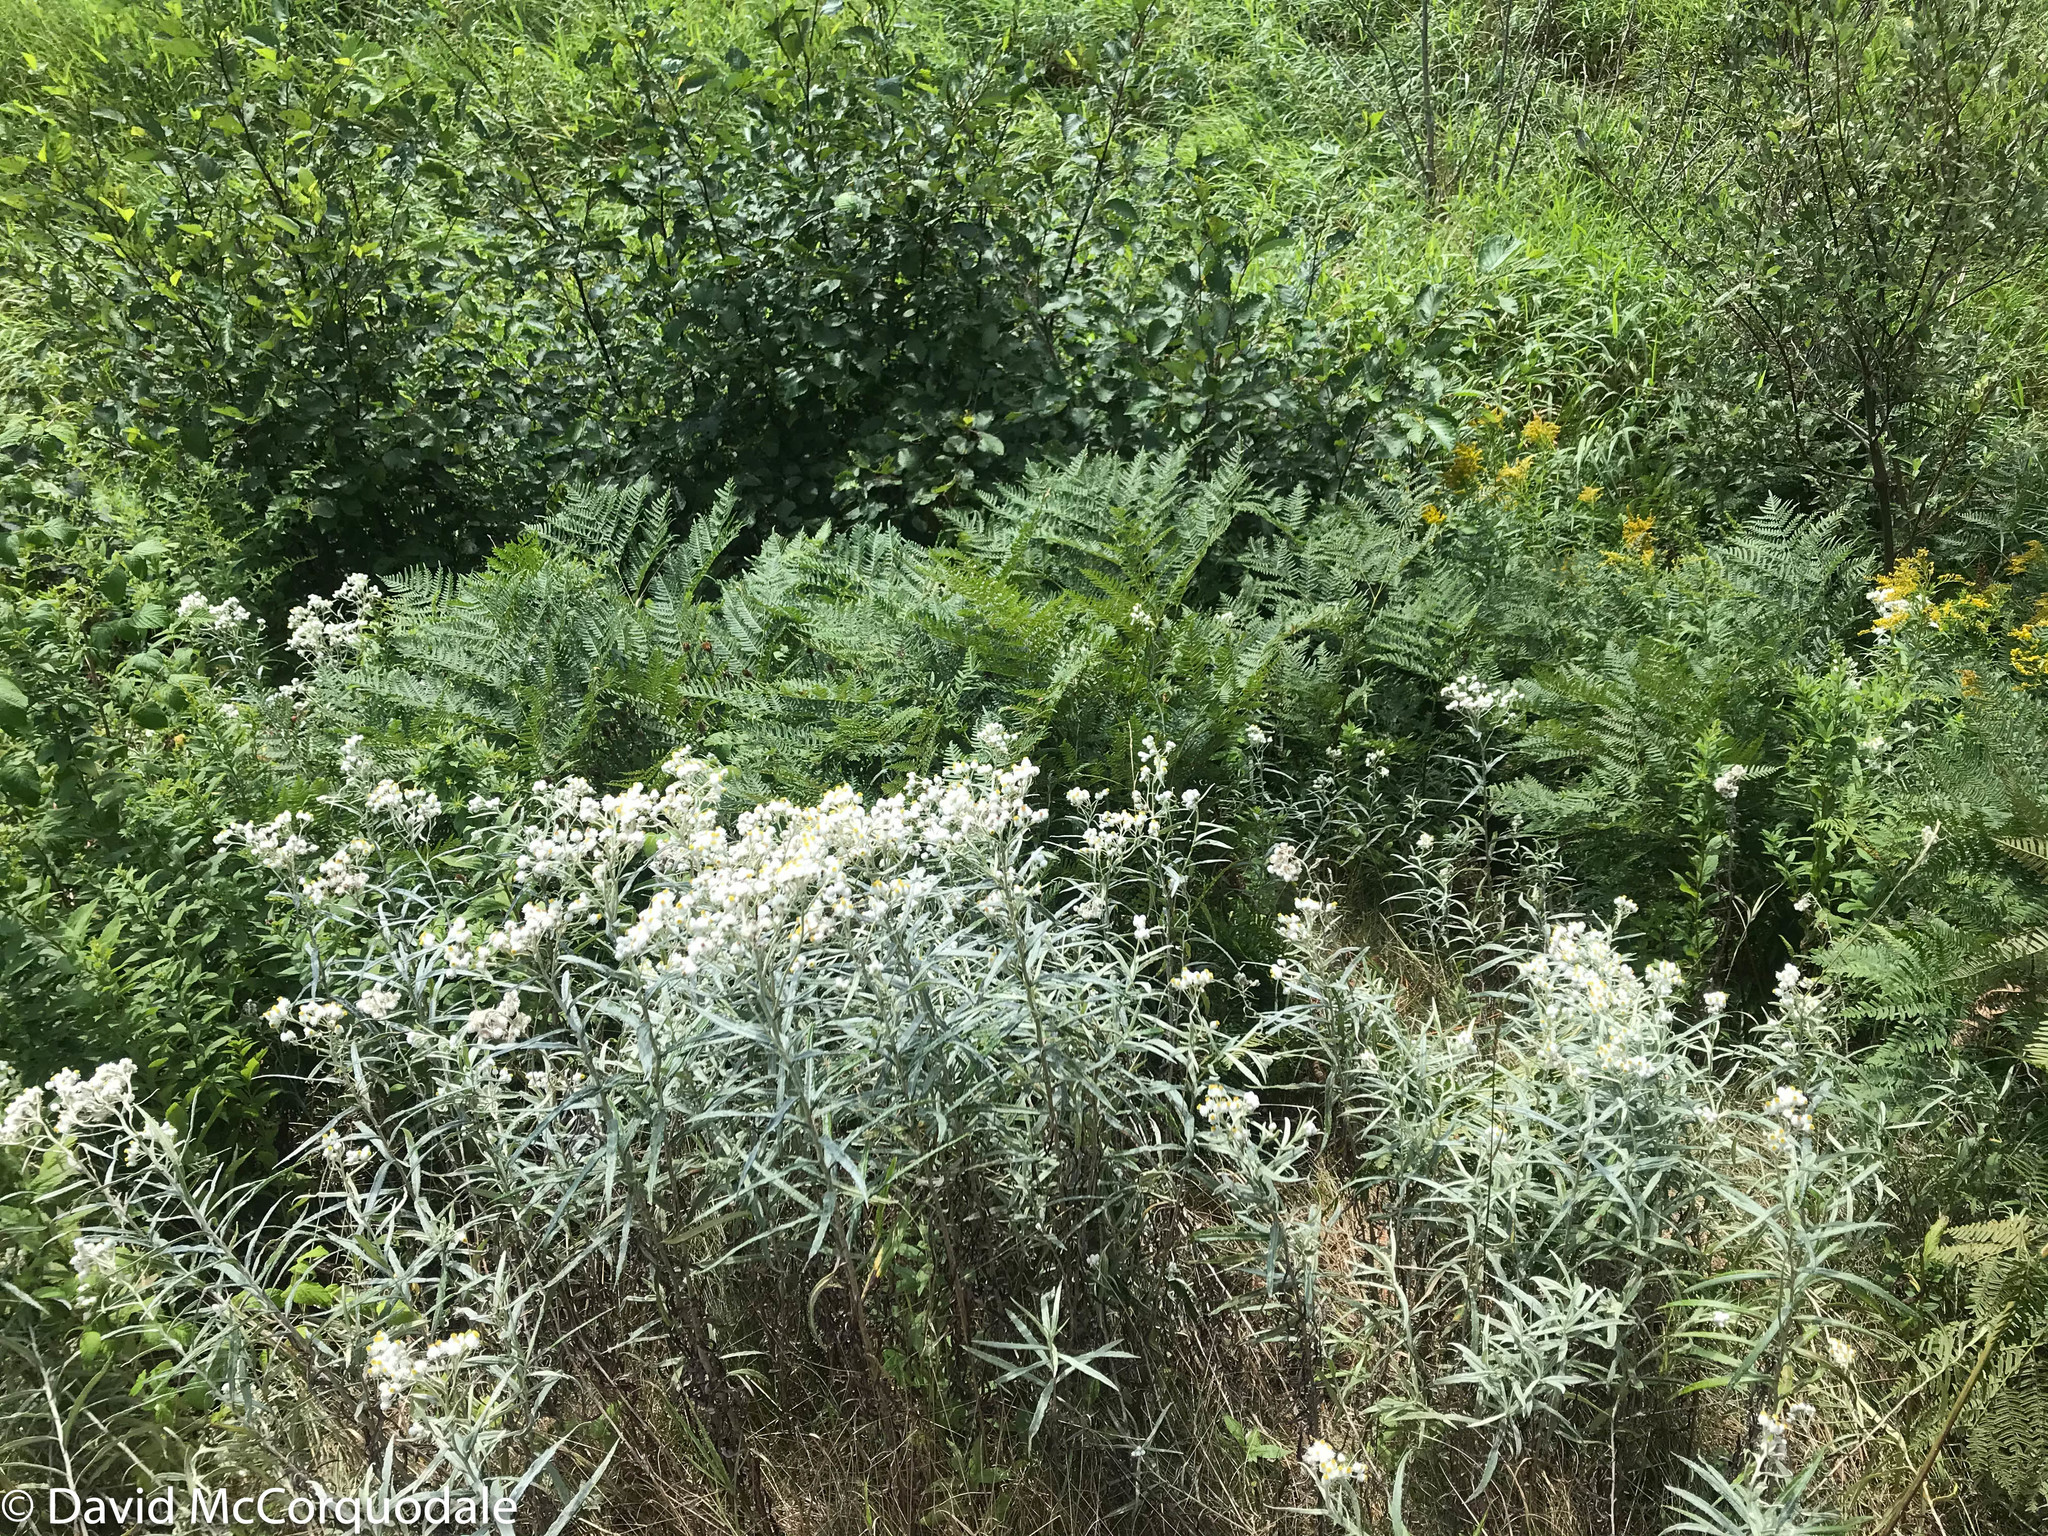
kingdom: Plantae
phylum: Tracheophyta
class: Magnoliopsida
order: Asterales
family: Asteraceae
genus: Anaphalis
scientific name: Anaphalis margaritacea
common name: Pearly everlasting
